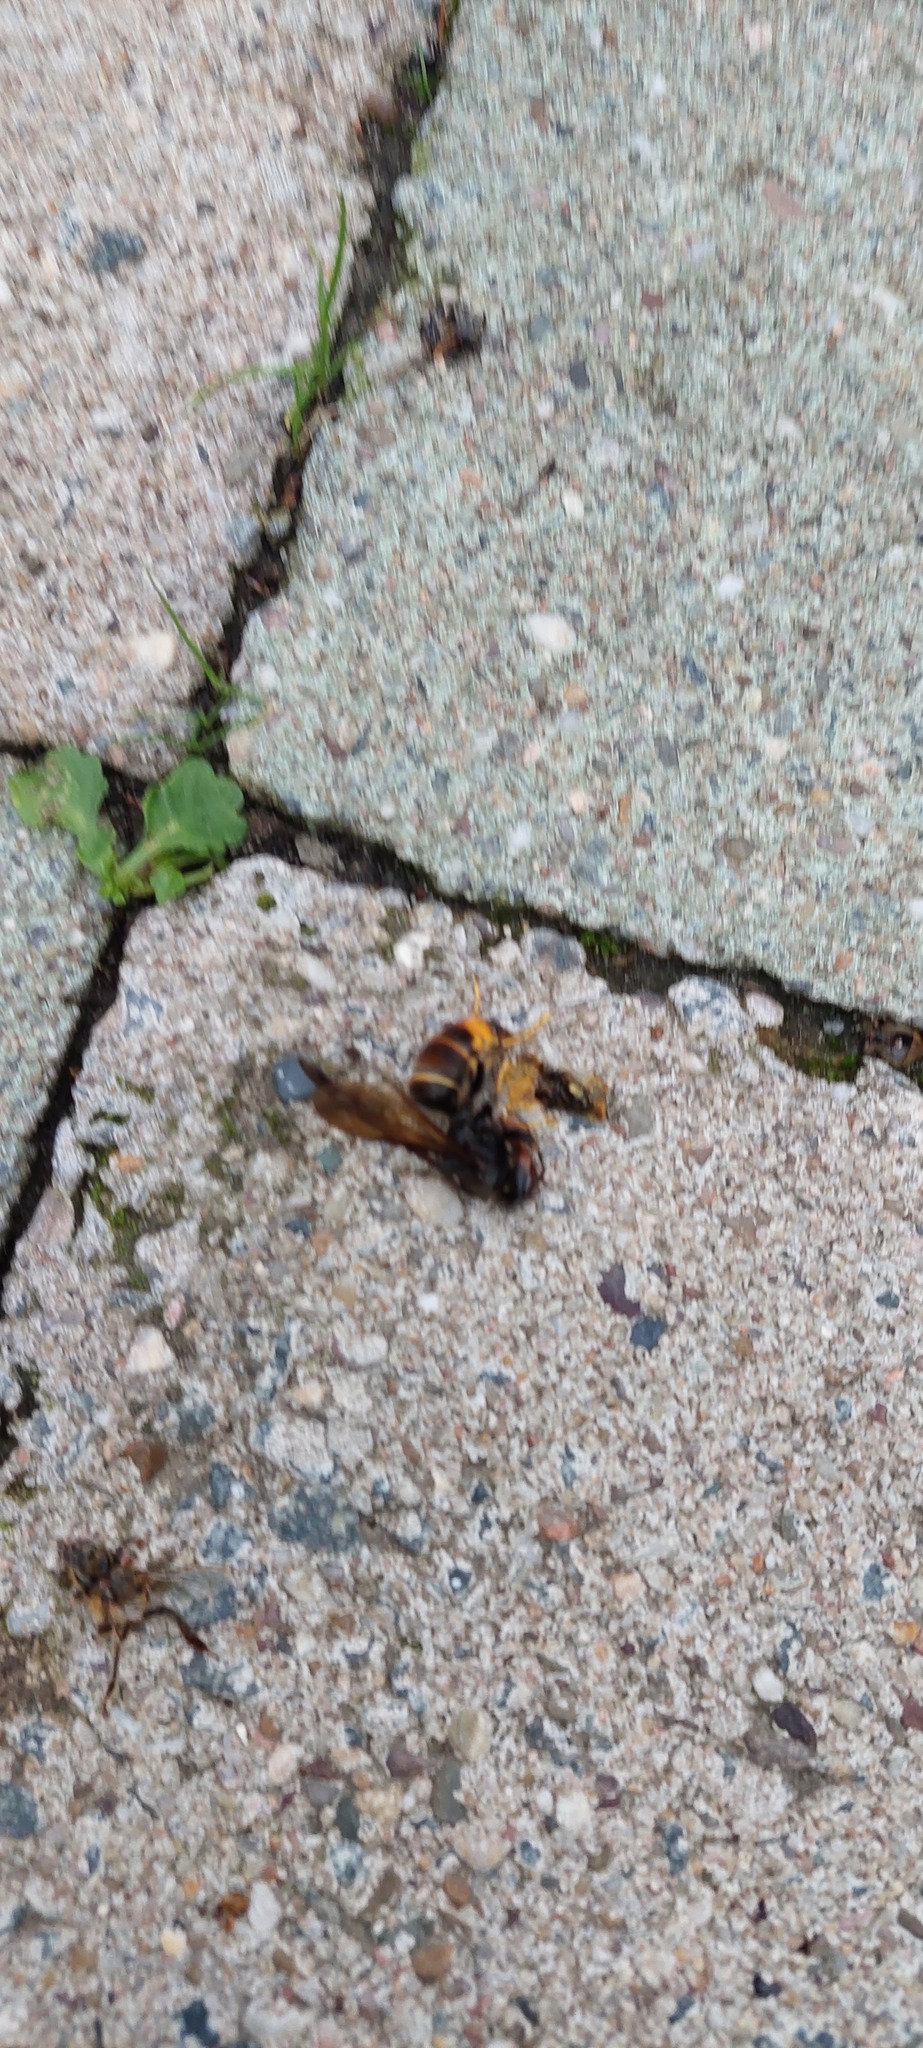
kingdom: Animalia
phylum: Arthropoda
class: Insecta
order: Hymenoptera
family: Vespidae
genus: Vespa
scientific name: Vespa velutina
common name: Asian hornet
